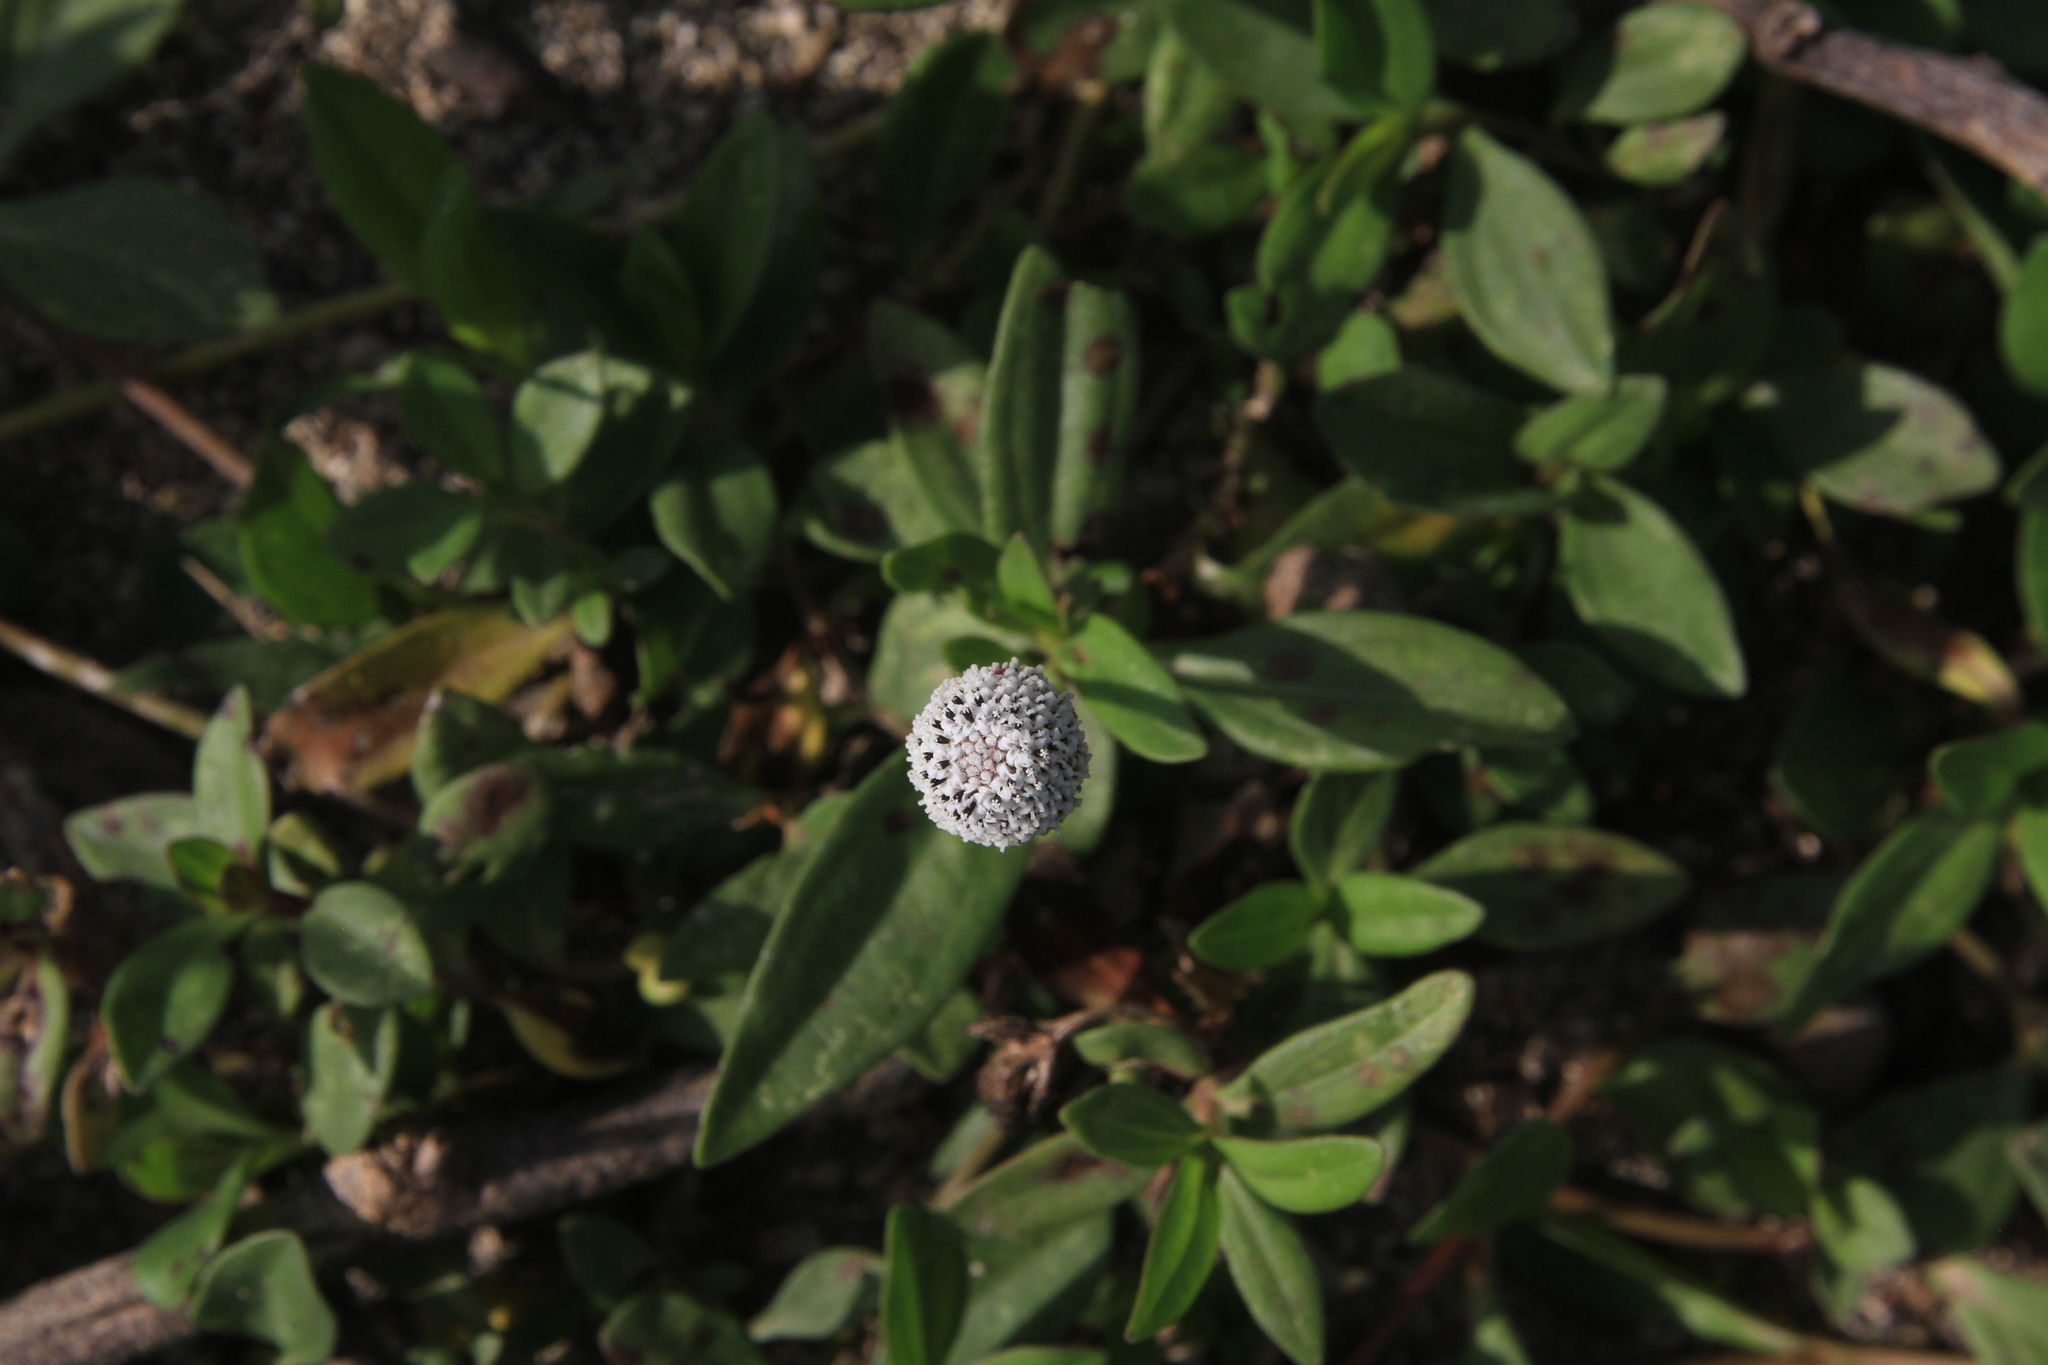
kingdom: Plantae
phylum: Tracheophyta
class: Magnoliopsida
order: Asterales
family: Asteraceae
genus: Spilanthes
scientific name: Spilanthes urens
